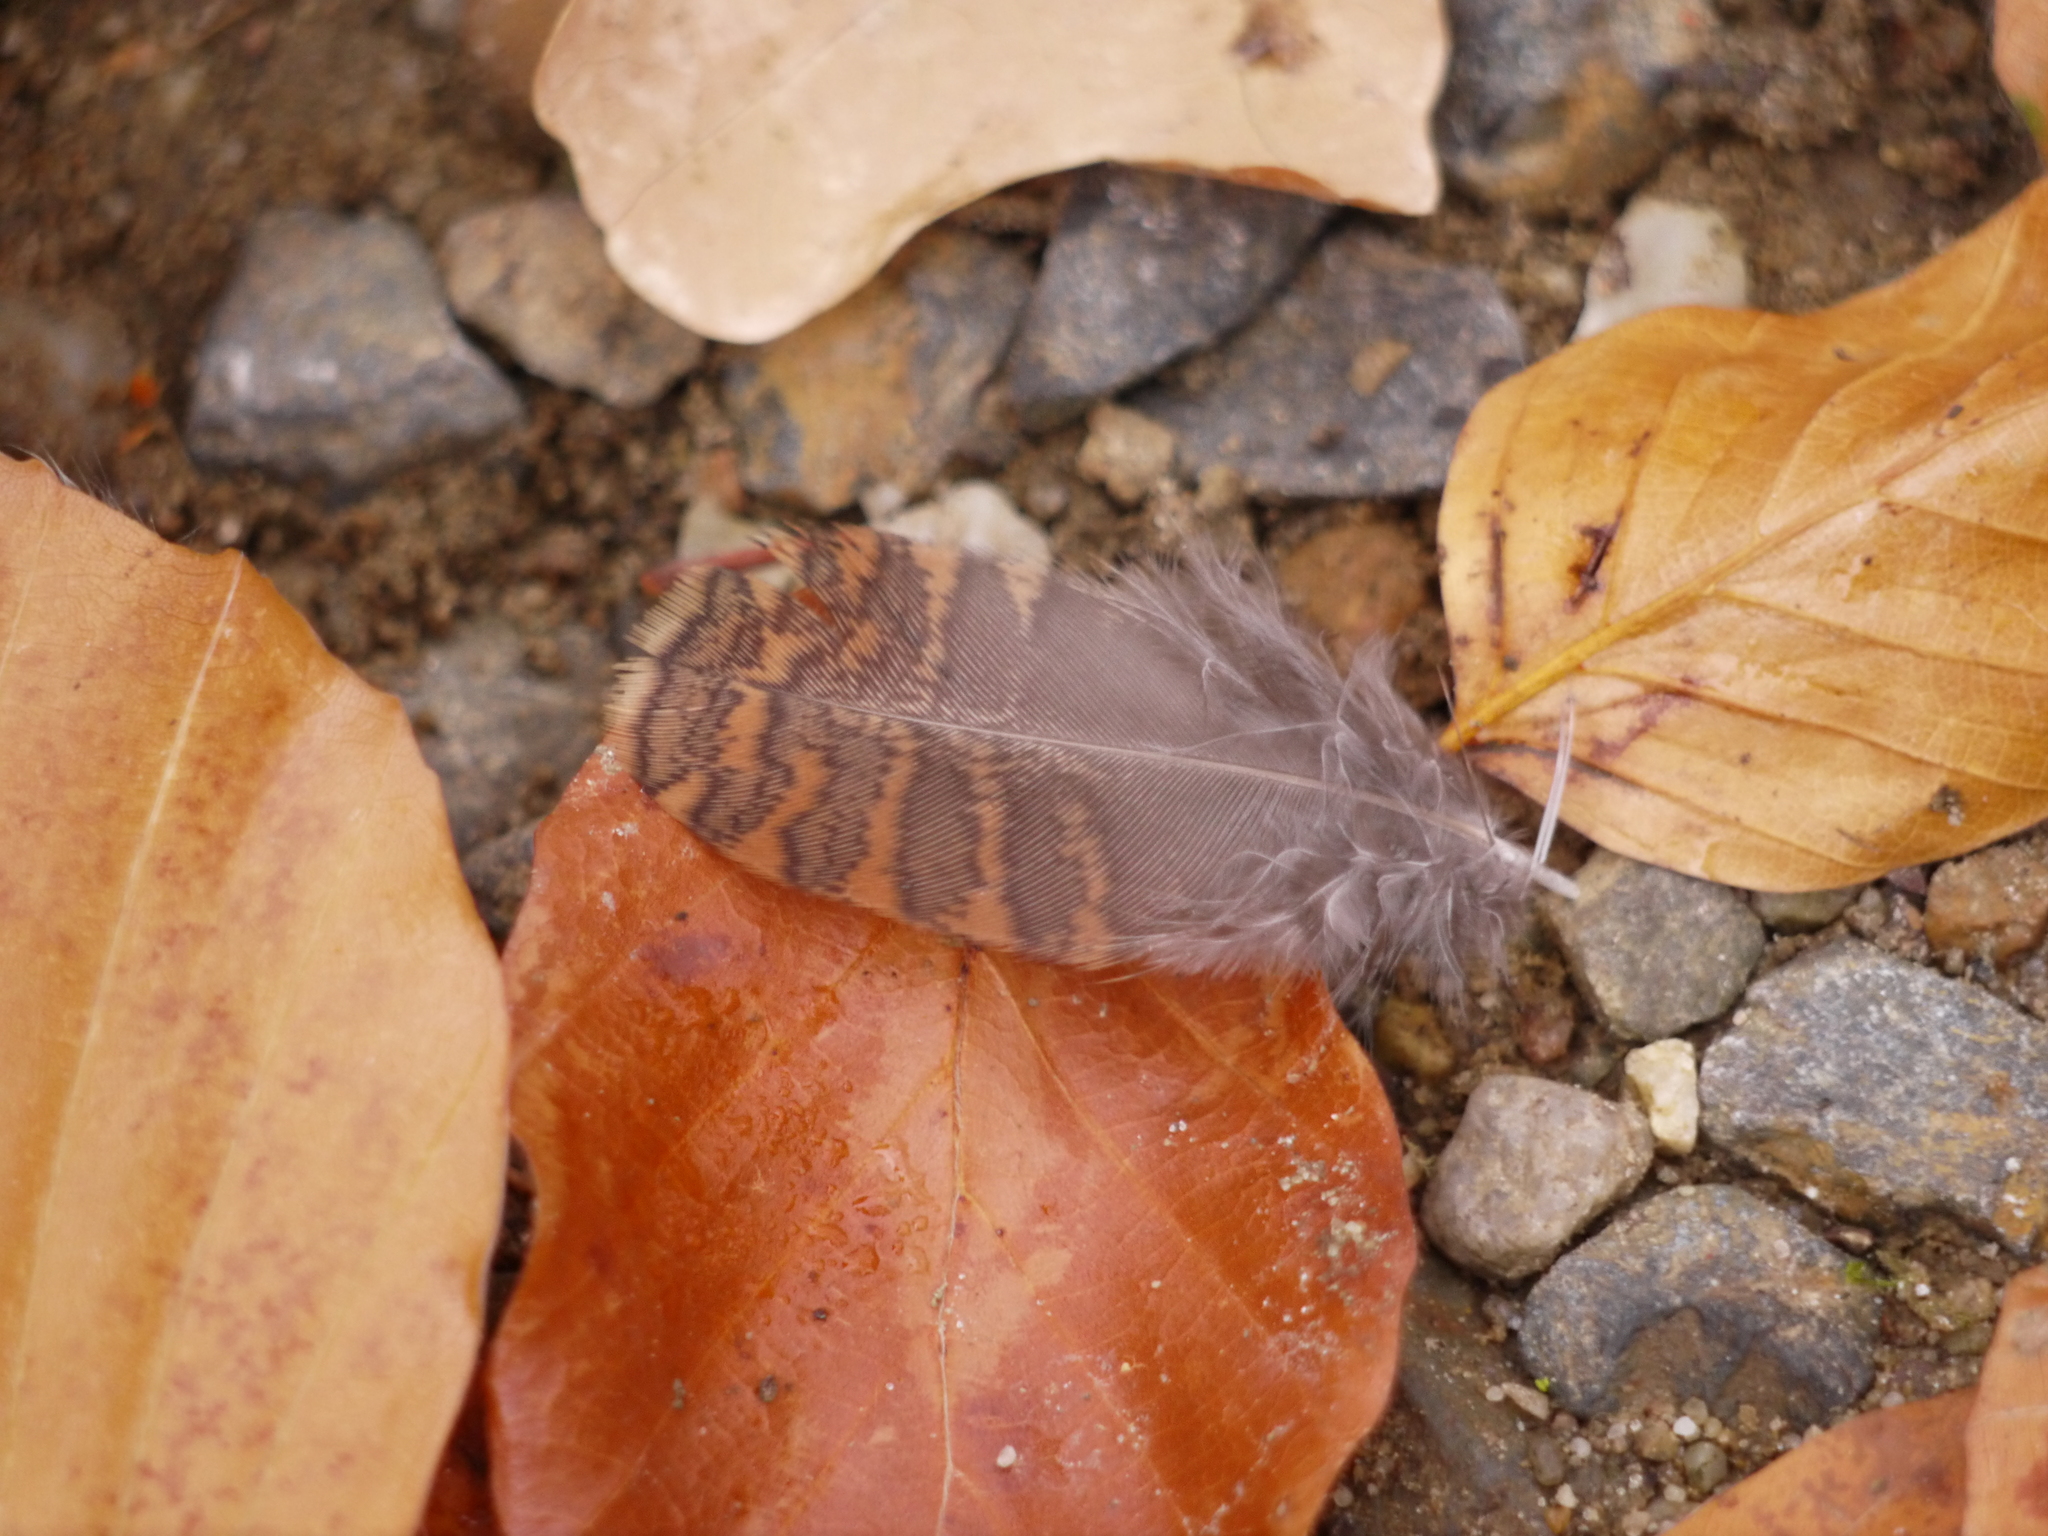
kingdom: Animalia
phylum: Chordata
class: Aves
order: Charadriiformes
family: Scolopacidae
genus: Scolopax
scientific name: Scolopax rusticola
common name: Eurasian woodcock
